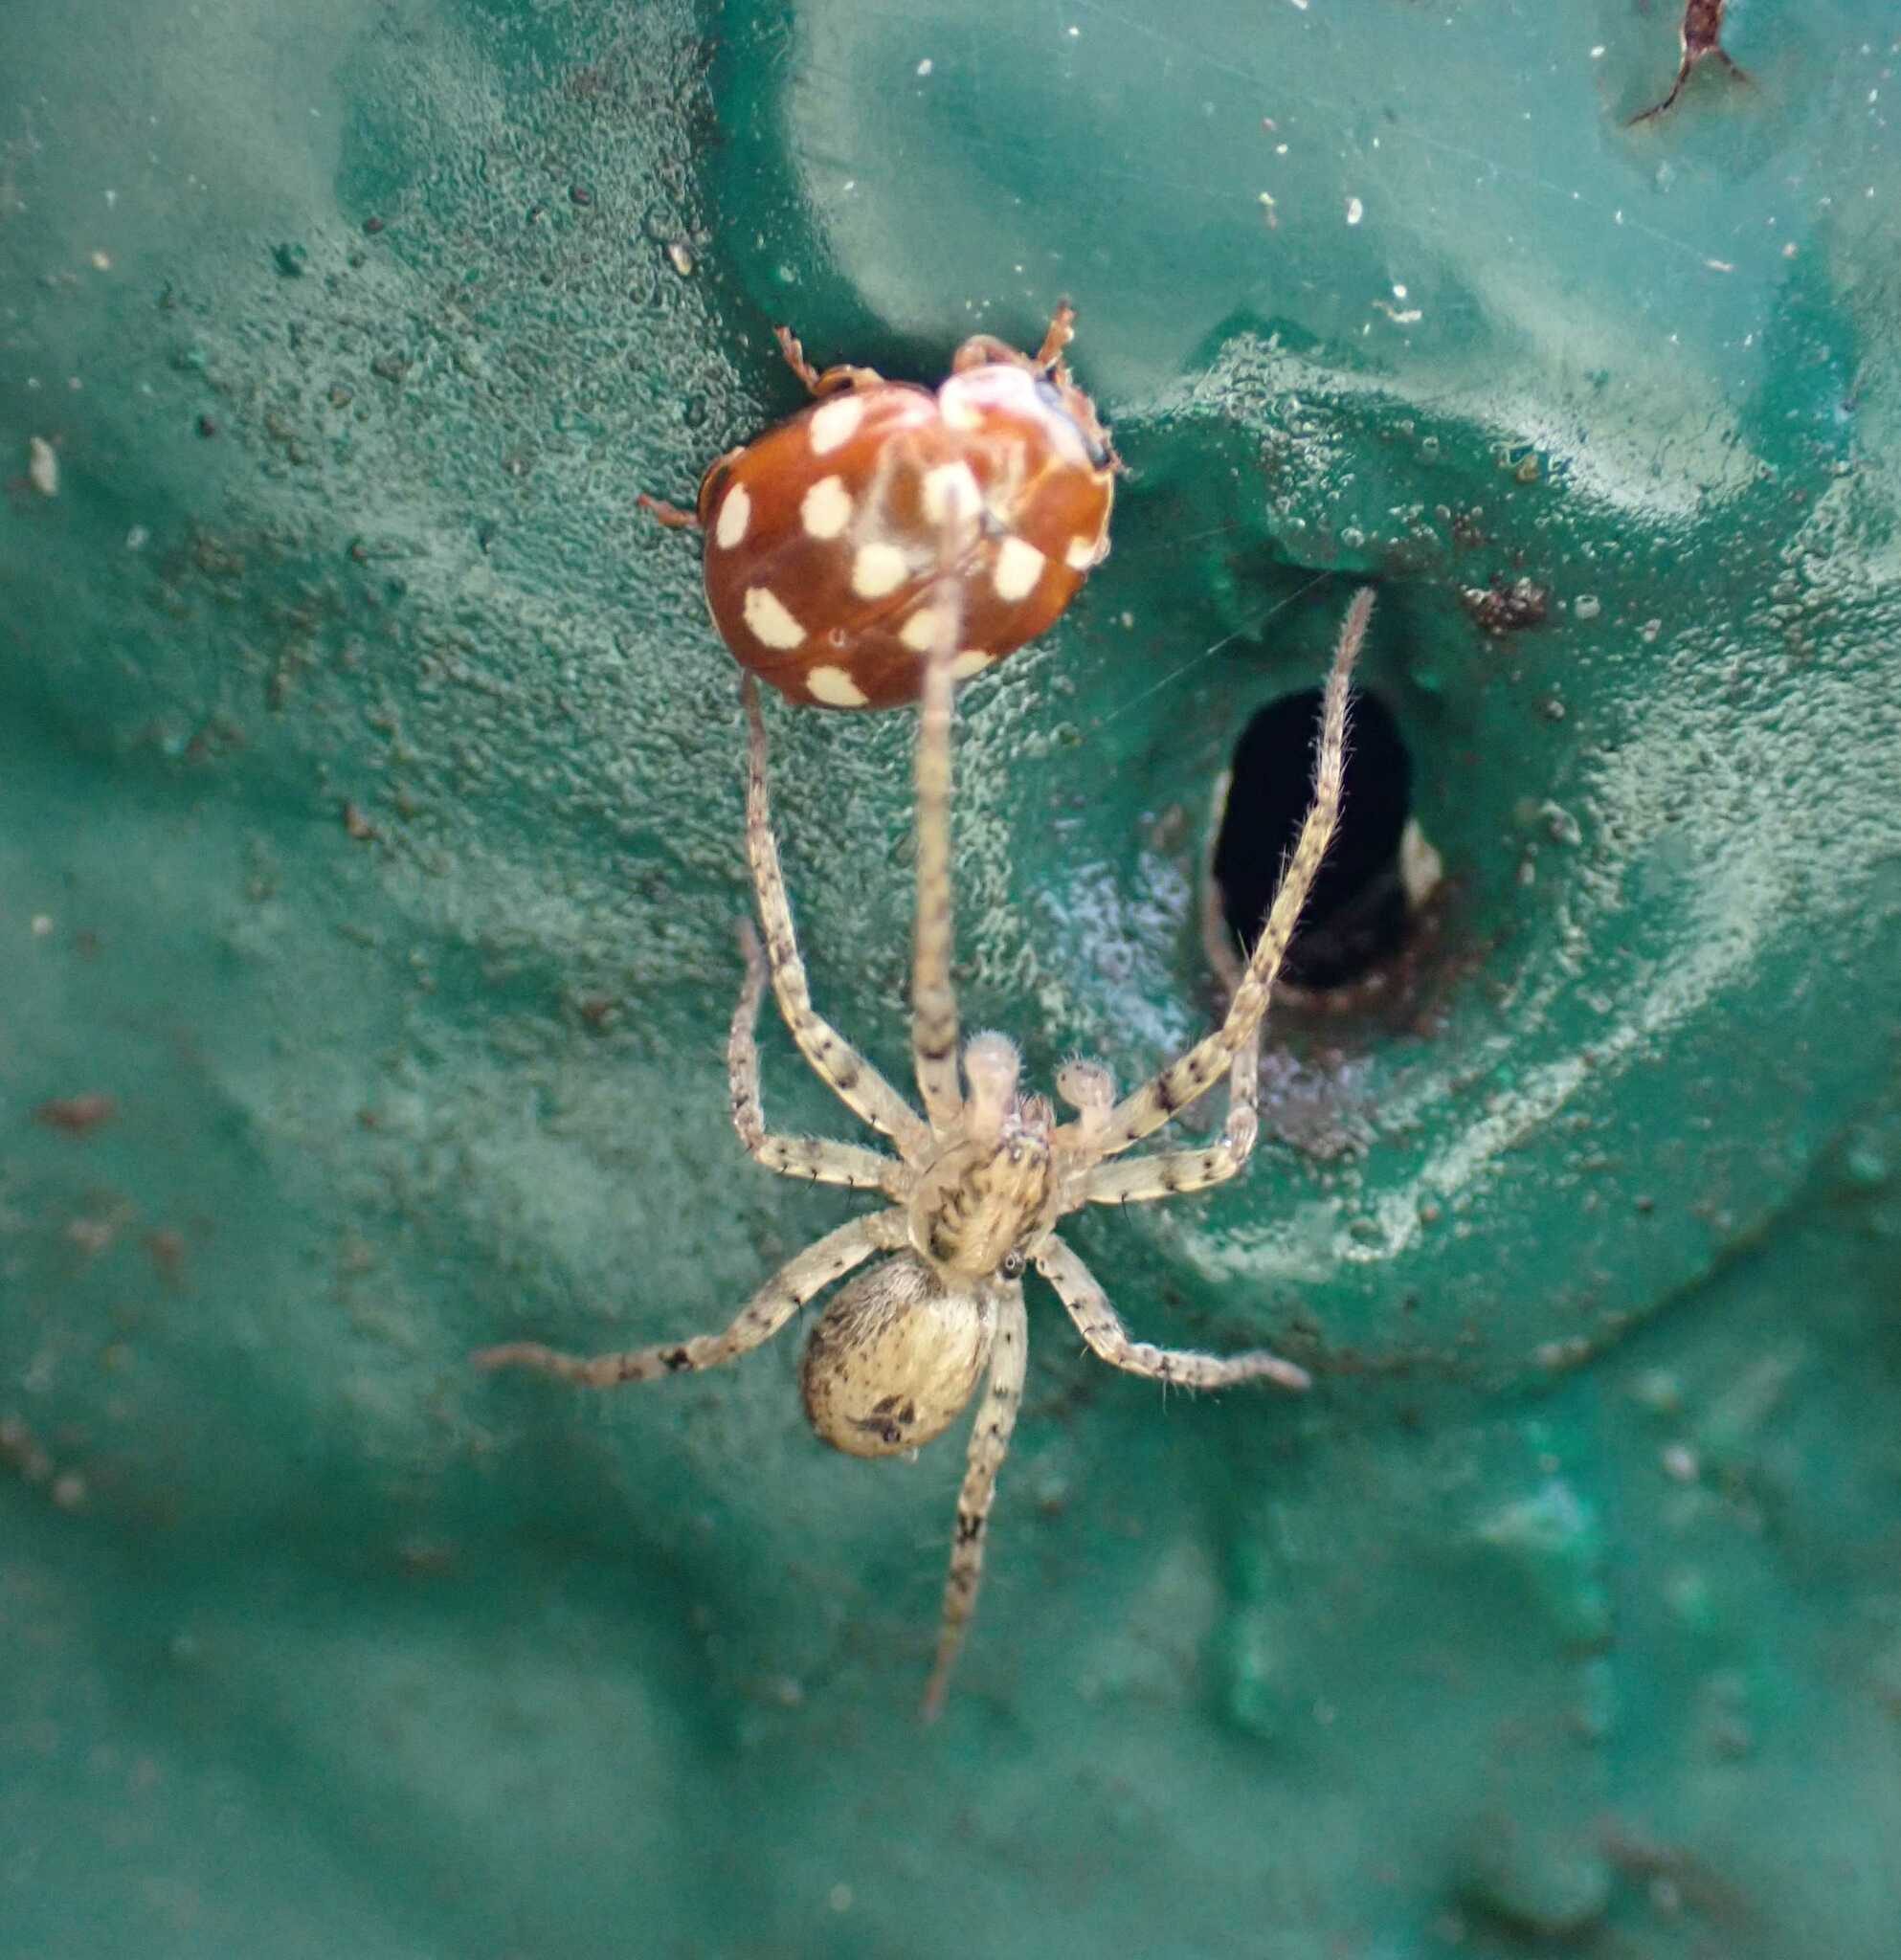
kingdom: Animalia
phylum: Arthropoda
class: Arachnida
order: Araneae
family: Anyphaenidae
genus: Anyphaena
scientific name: Anyphaena accentuata
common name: Buzzing spider
